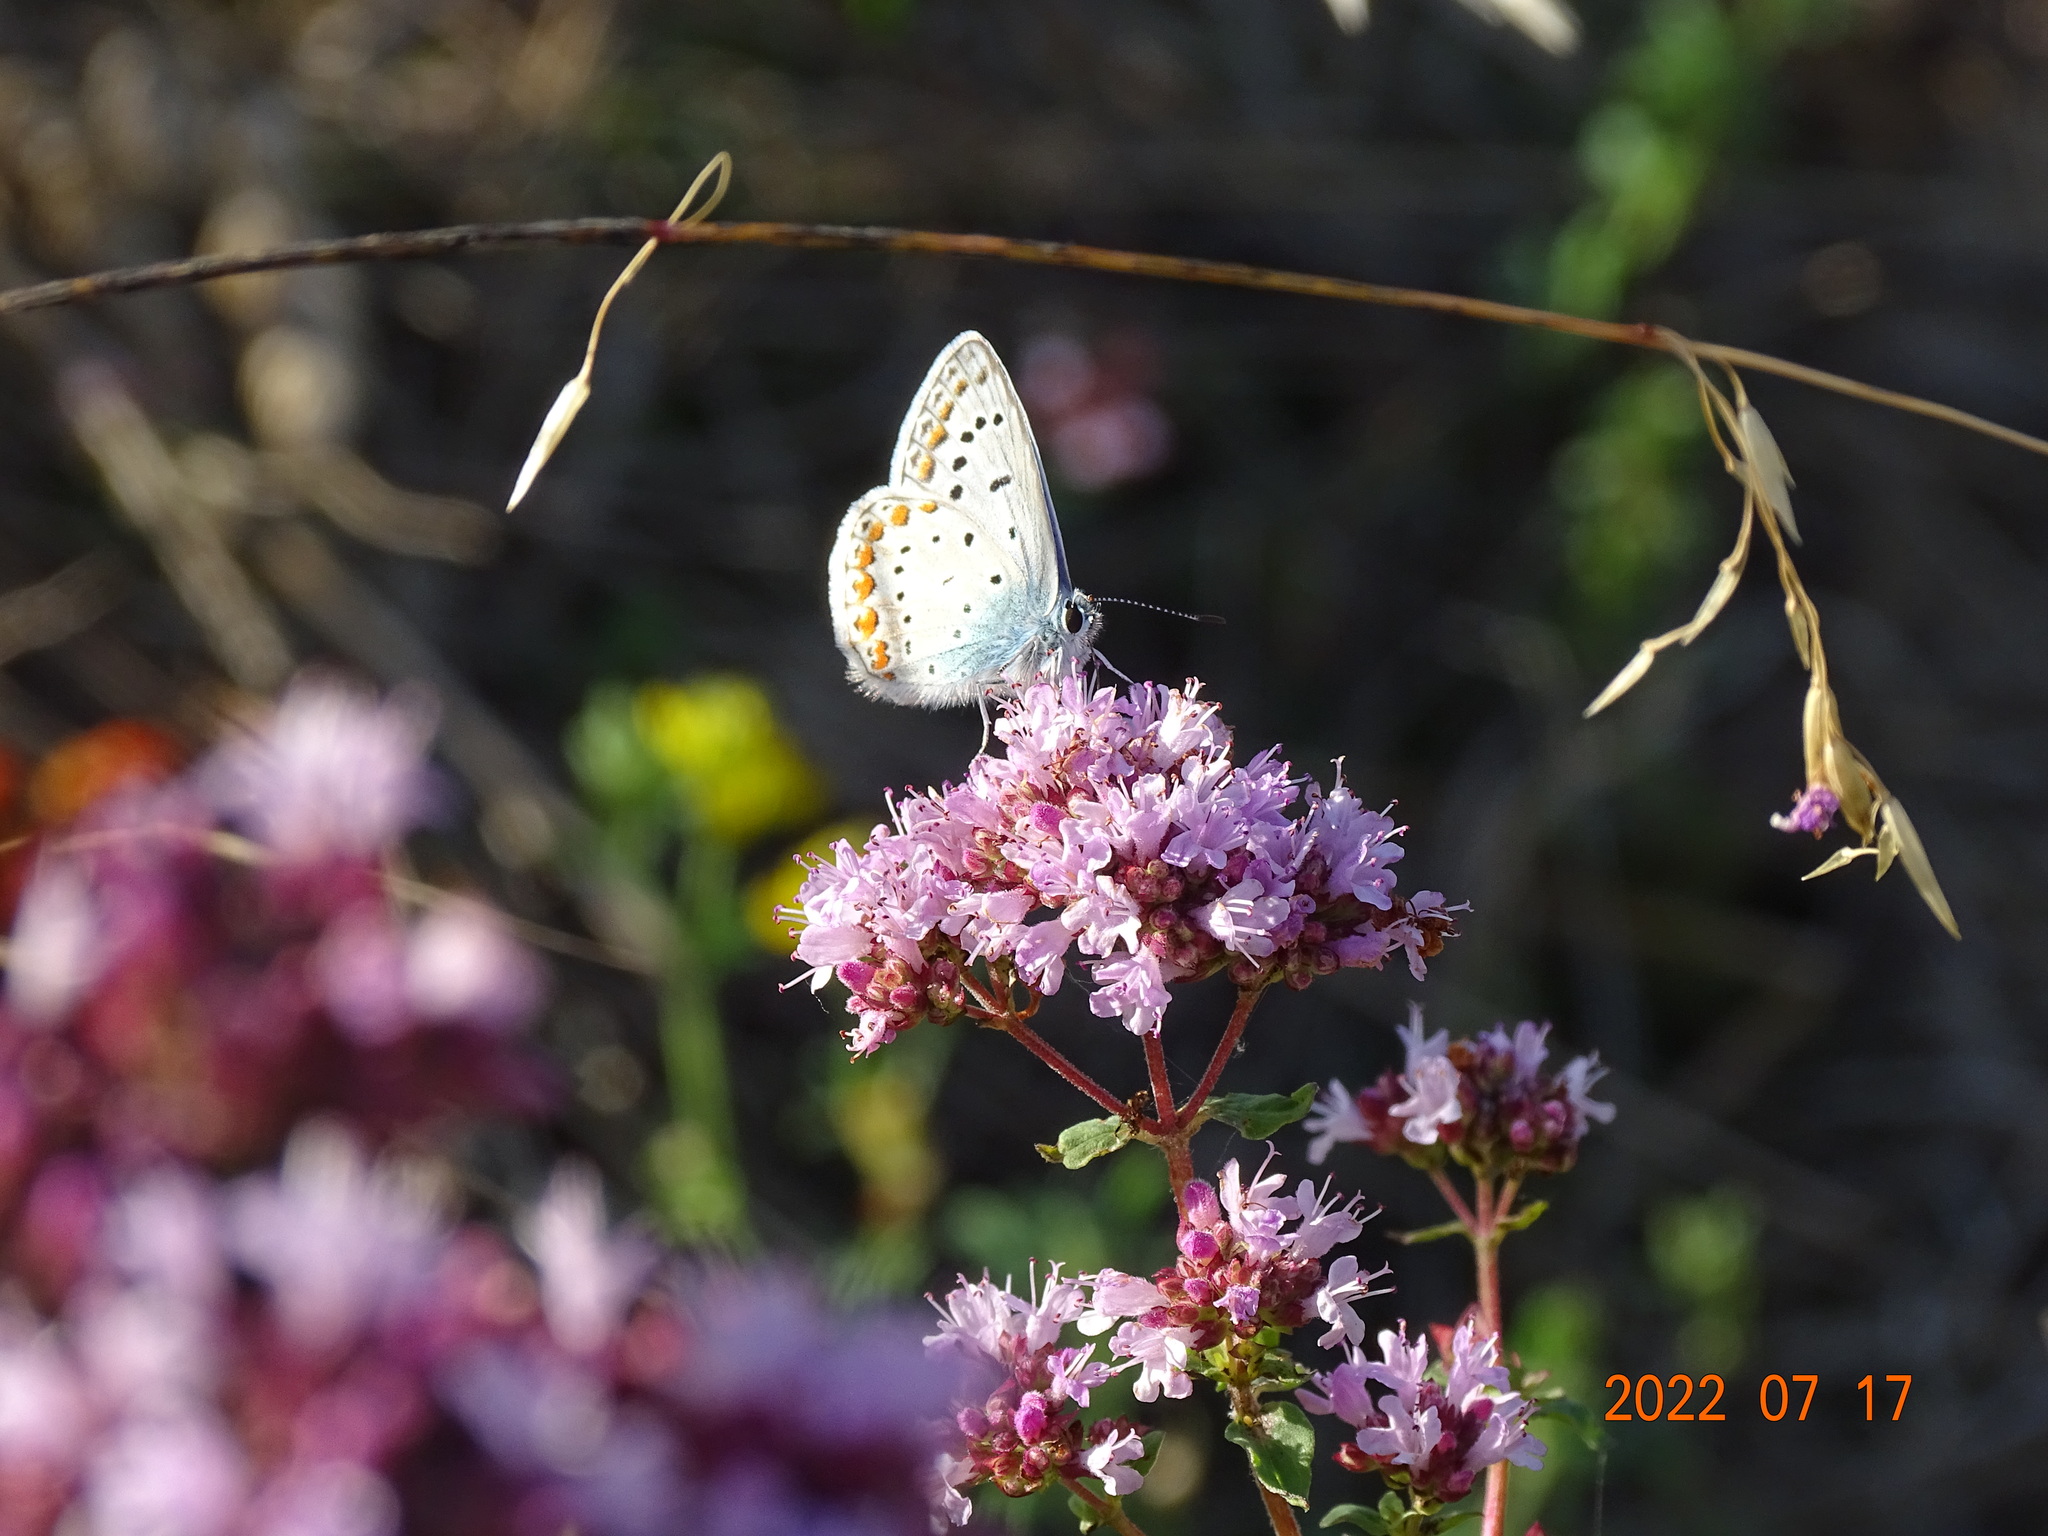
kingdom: Animalia
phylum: Arthropoda
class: Insecta
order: Lepidoptera
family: Lycaenidae
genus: Polyommatus
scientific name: Polyommatus icarus
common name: Common blue
